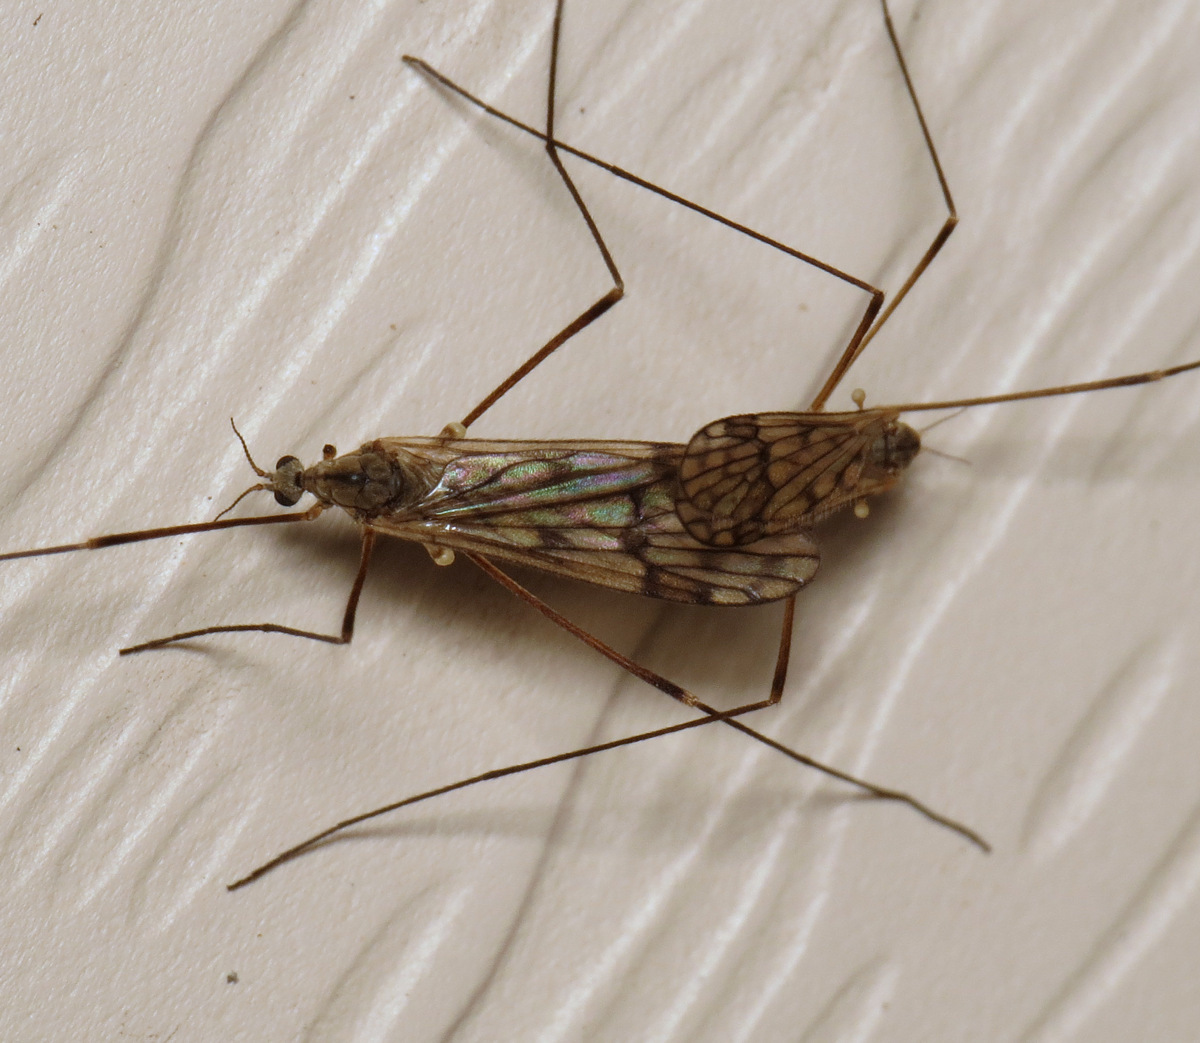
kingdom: Animalia
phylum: Arthropoda
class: Insecta
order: Diptera
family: Limoniidae
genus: Dactylolabis
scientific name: Dactylolabis montana
